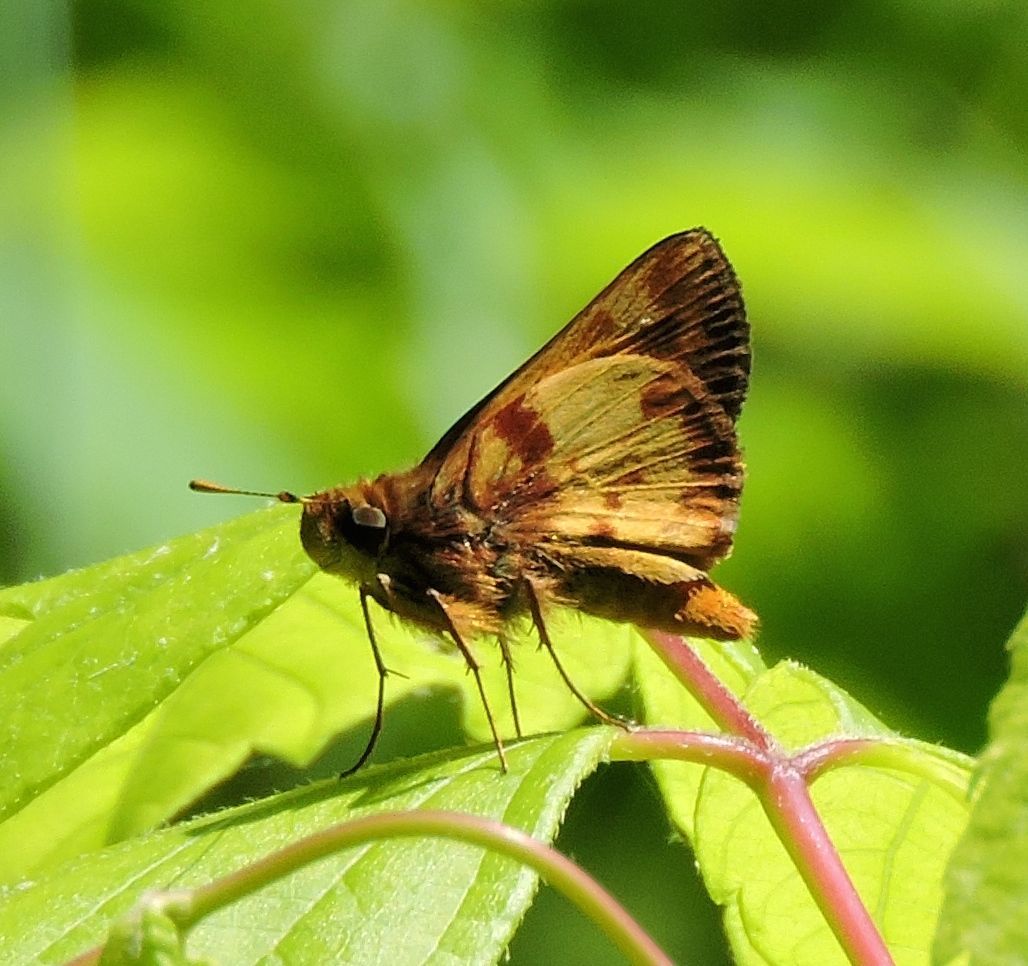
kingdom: Animalia
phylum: Arthropoda
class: Insecta
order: Lepidoptera
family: Hesperiidae
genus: Lon
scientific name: Lon zabulon
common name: Zabulon skipper
